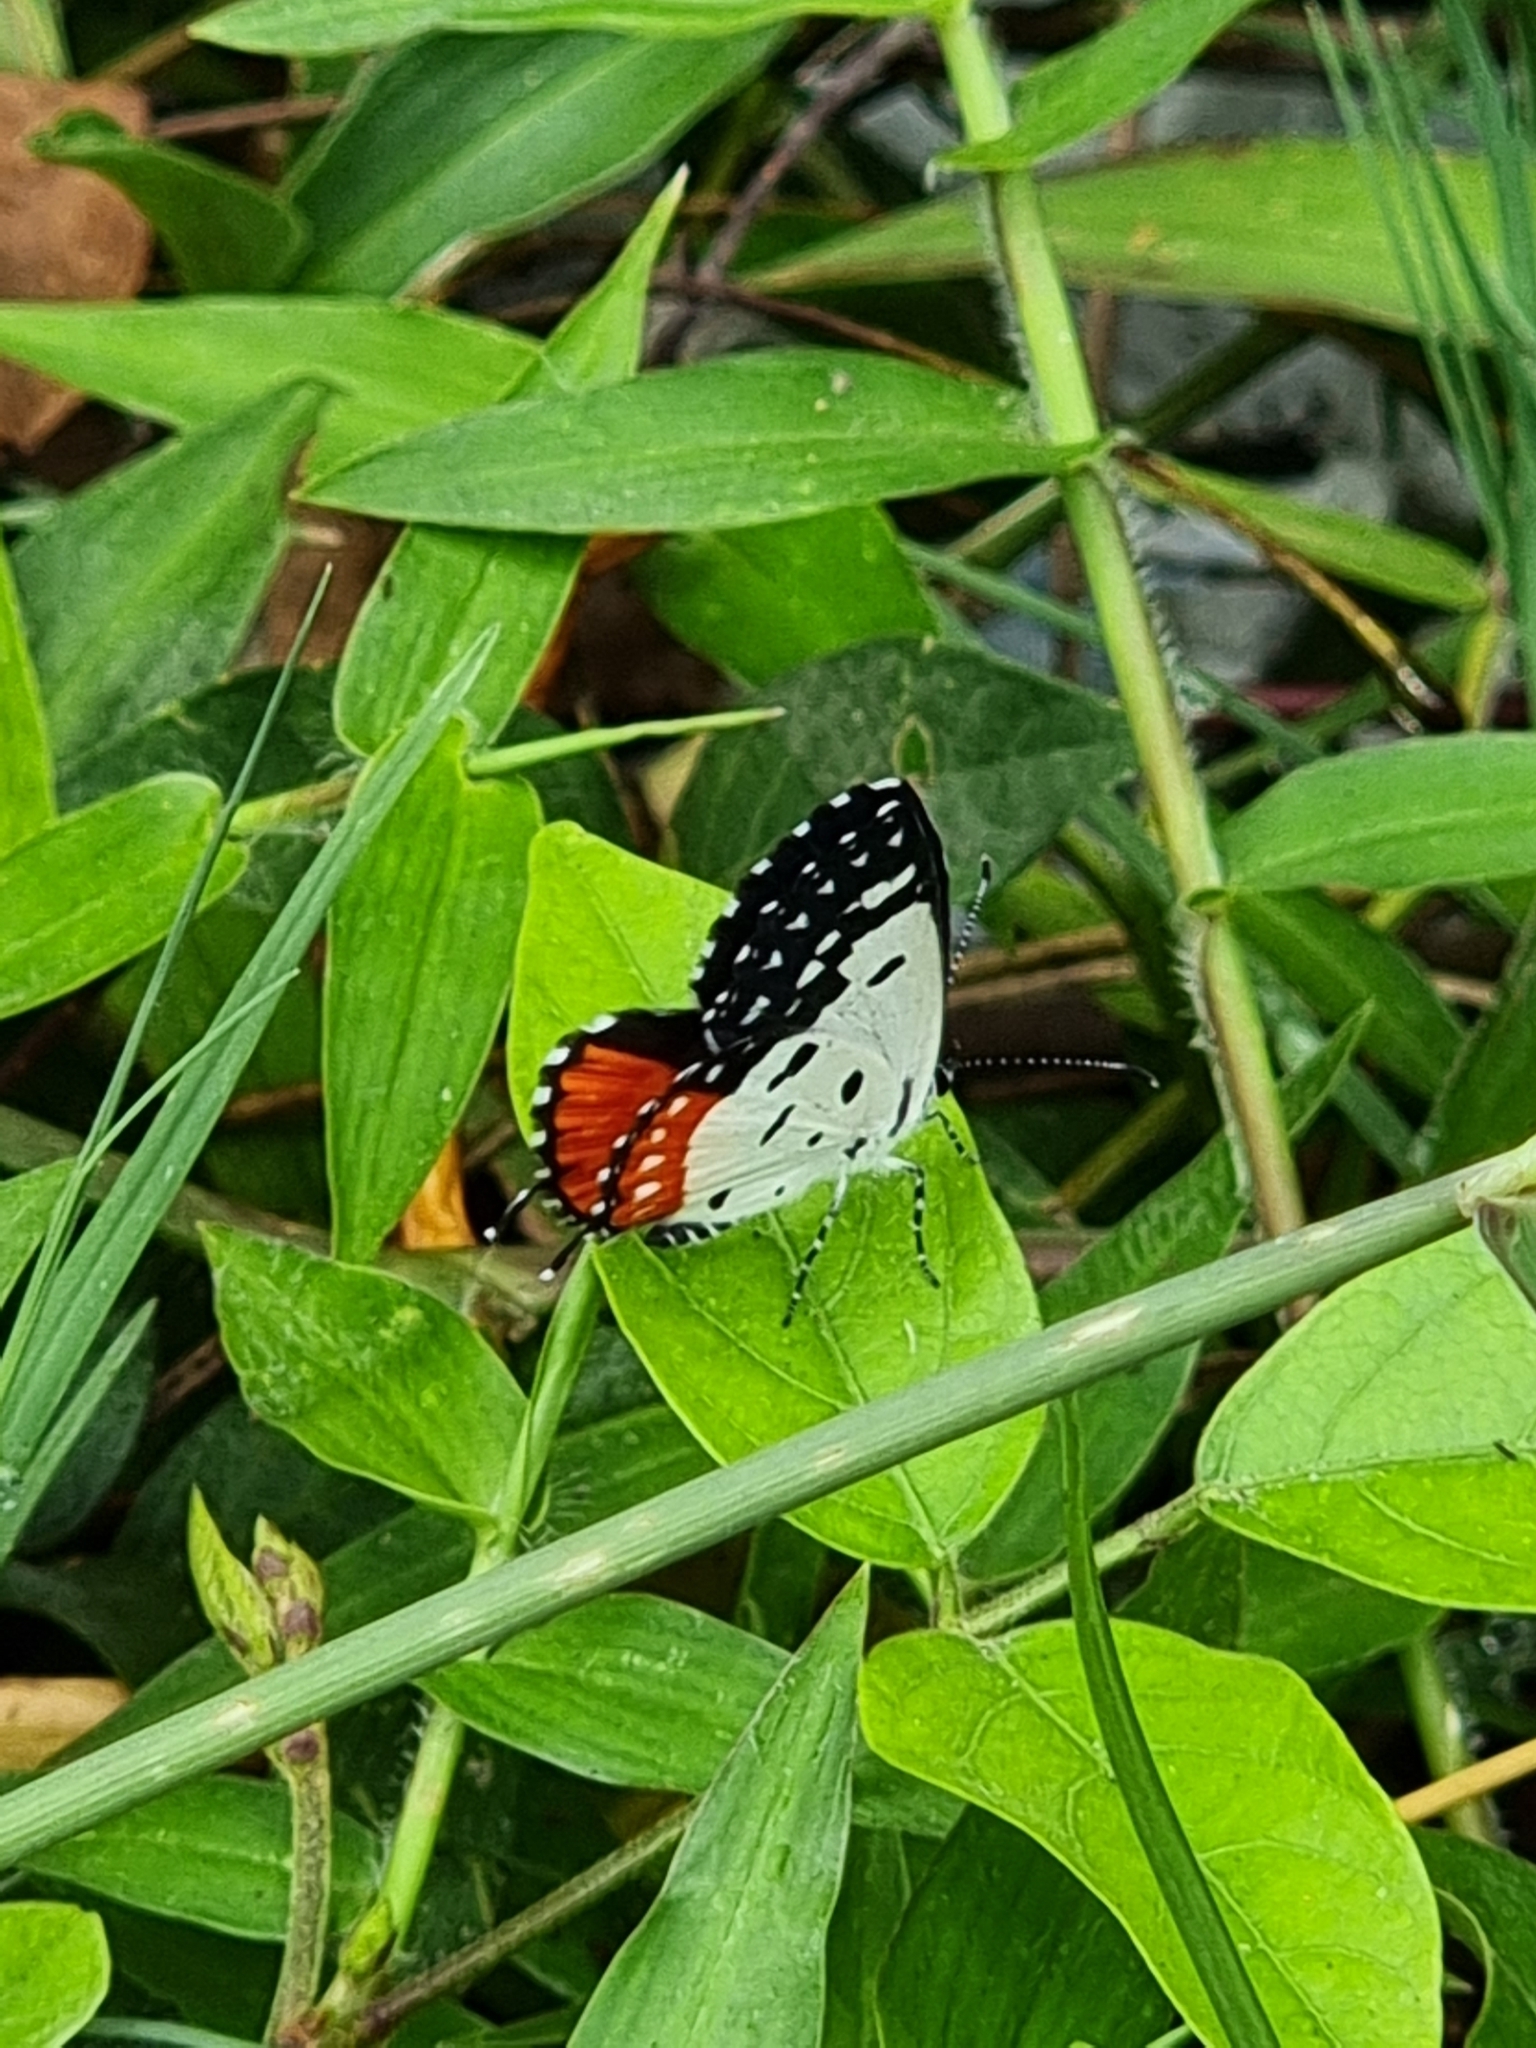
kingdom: Animalia
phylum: Arthropoda
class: Insecta
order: Lepidoptera
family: Lycaenidae
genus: Talicada
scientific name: Talicada nyseus
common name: Red pierrot
